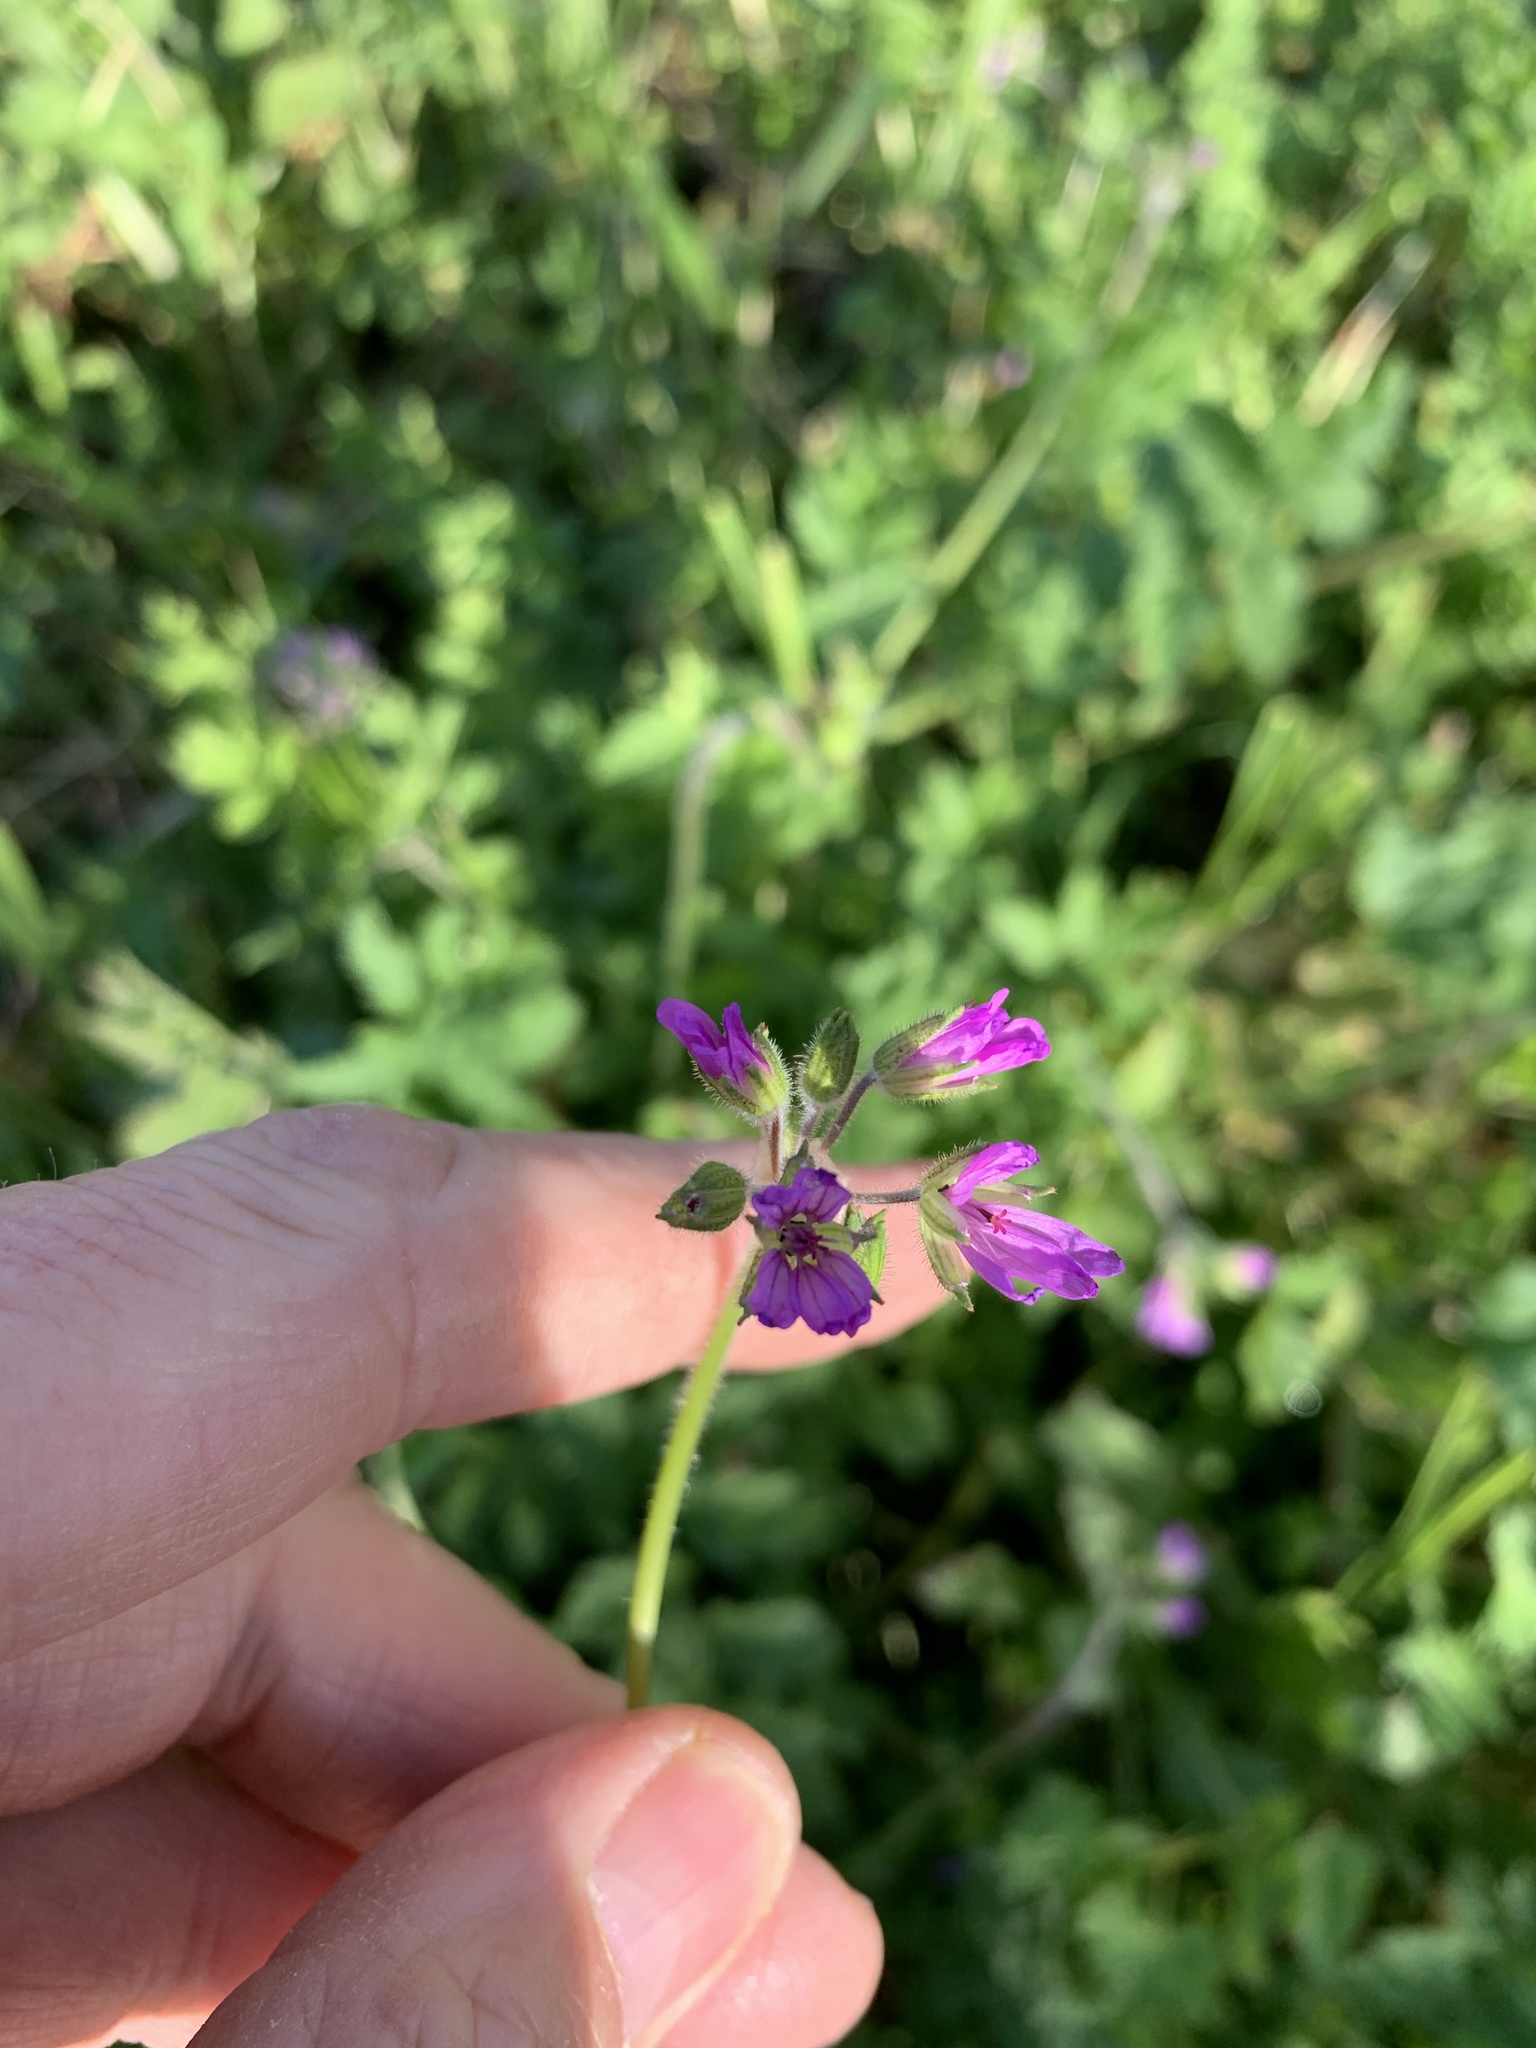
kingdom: Plantae
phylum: Tracheophyta
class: Magnoliopsida
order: Geraniales
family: Geraniaceae
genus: Erodium
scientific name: Erodium moschatum
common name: Musk stork's-bill
